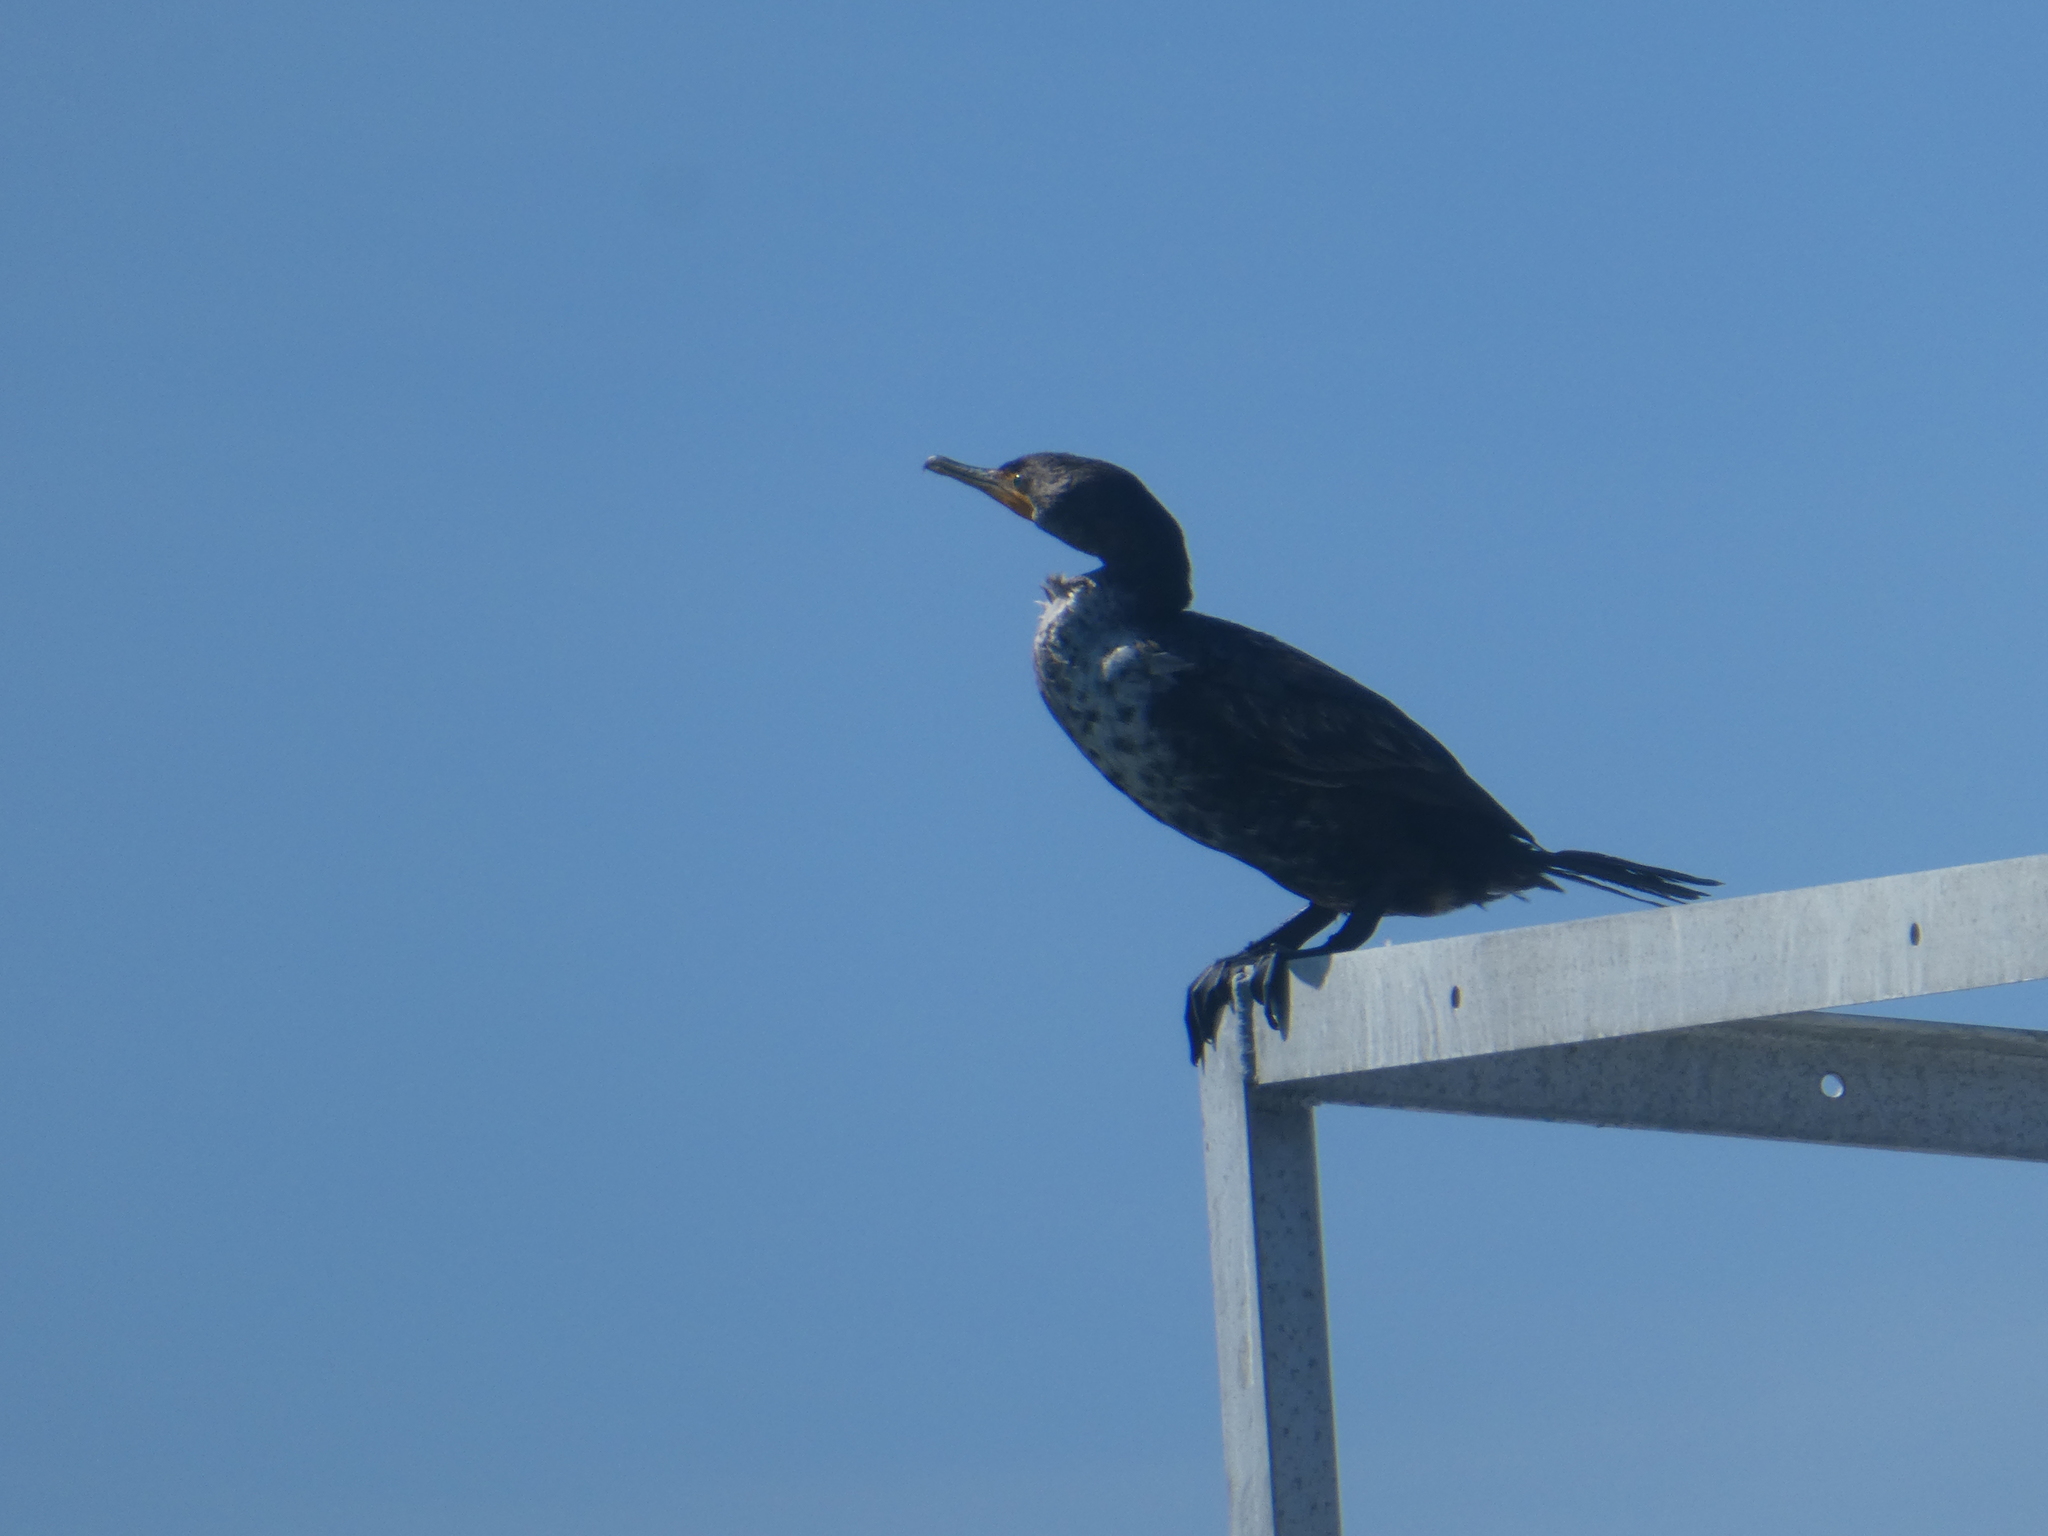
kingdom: Animalia
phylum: Chordata
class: Aves
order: Suliformes
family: Phalacrocoracidae
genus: Phalacrocorax
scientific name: Phalacrocorax auritus
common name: Double-crested cormorant
